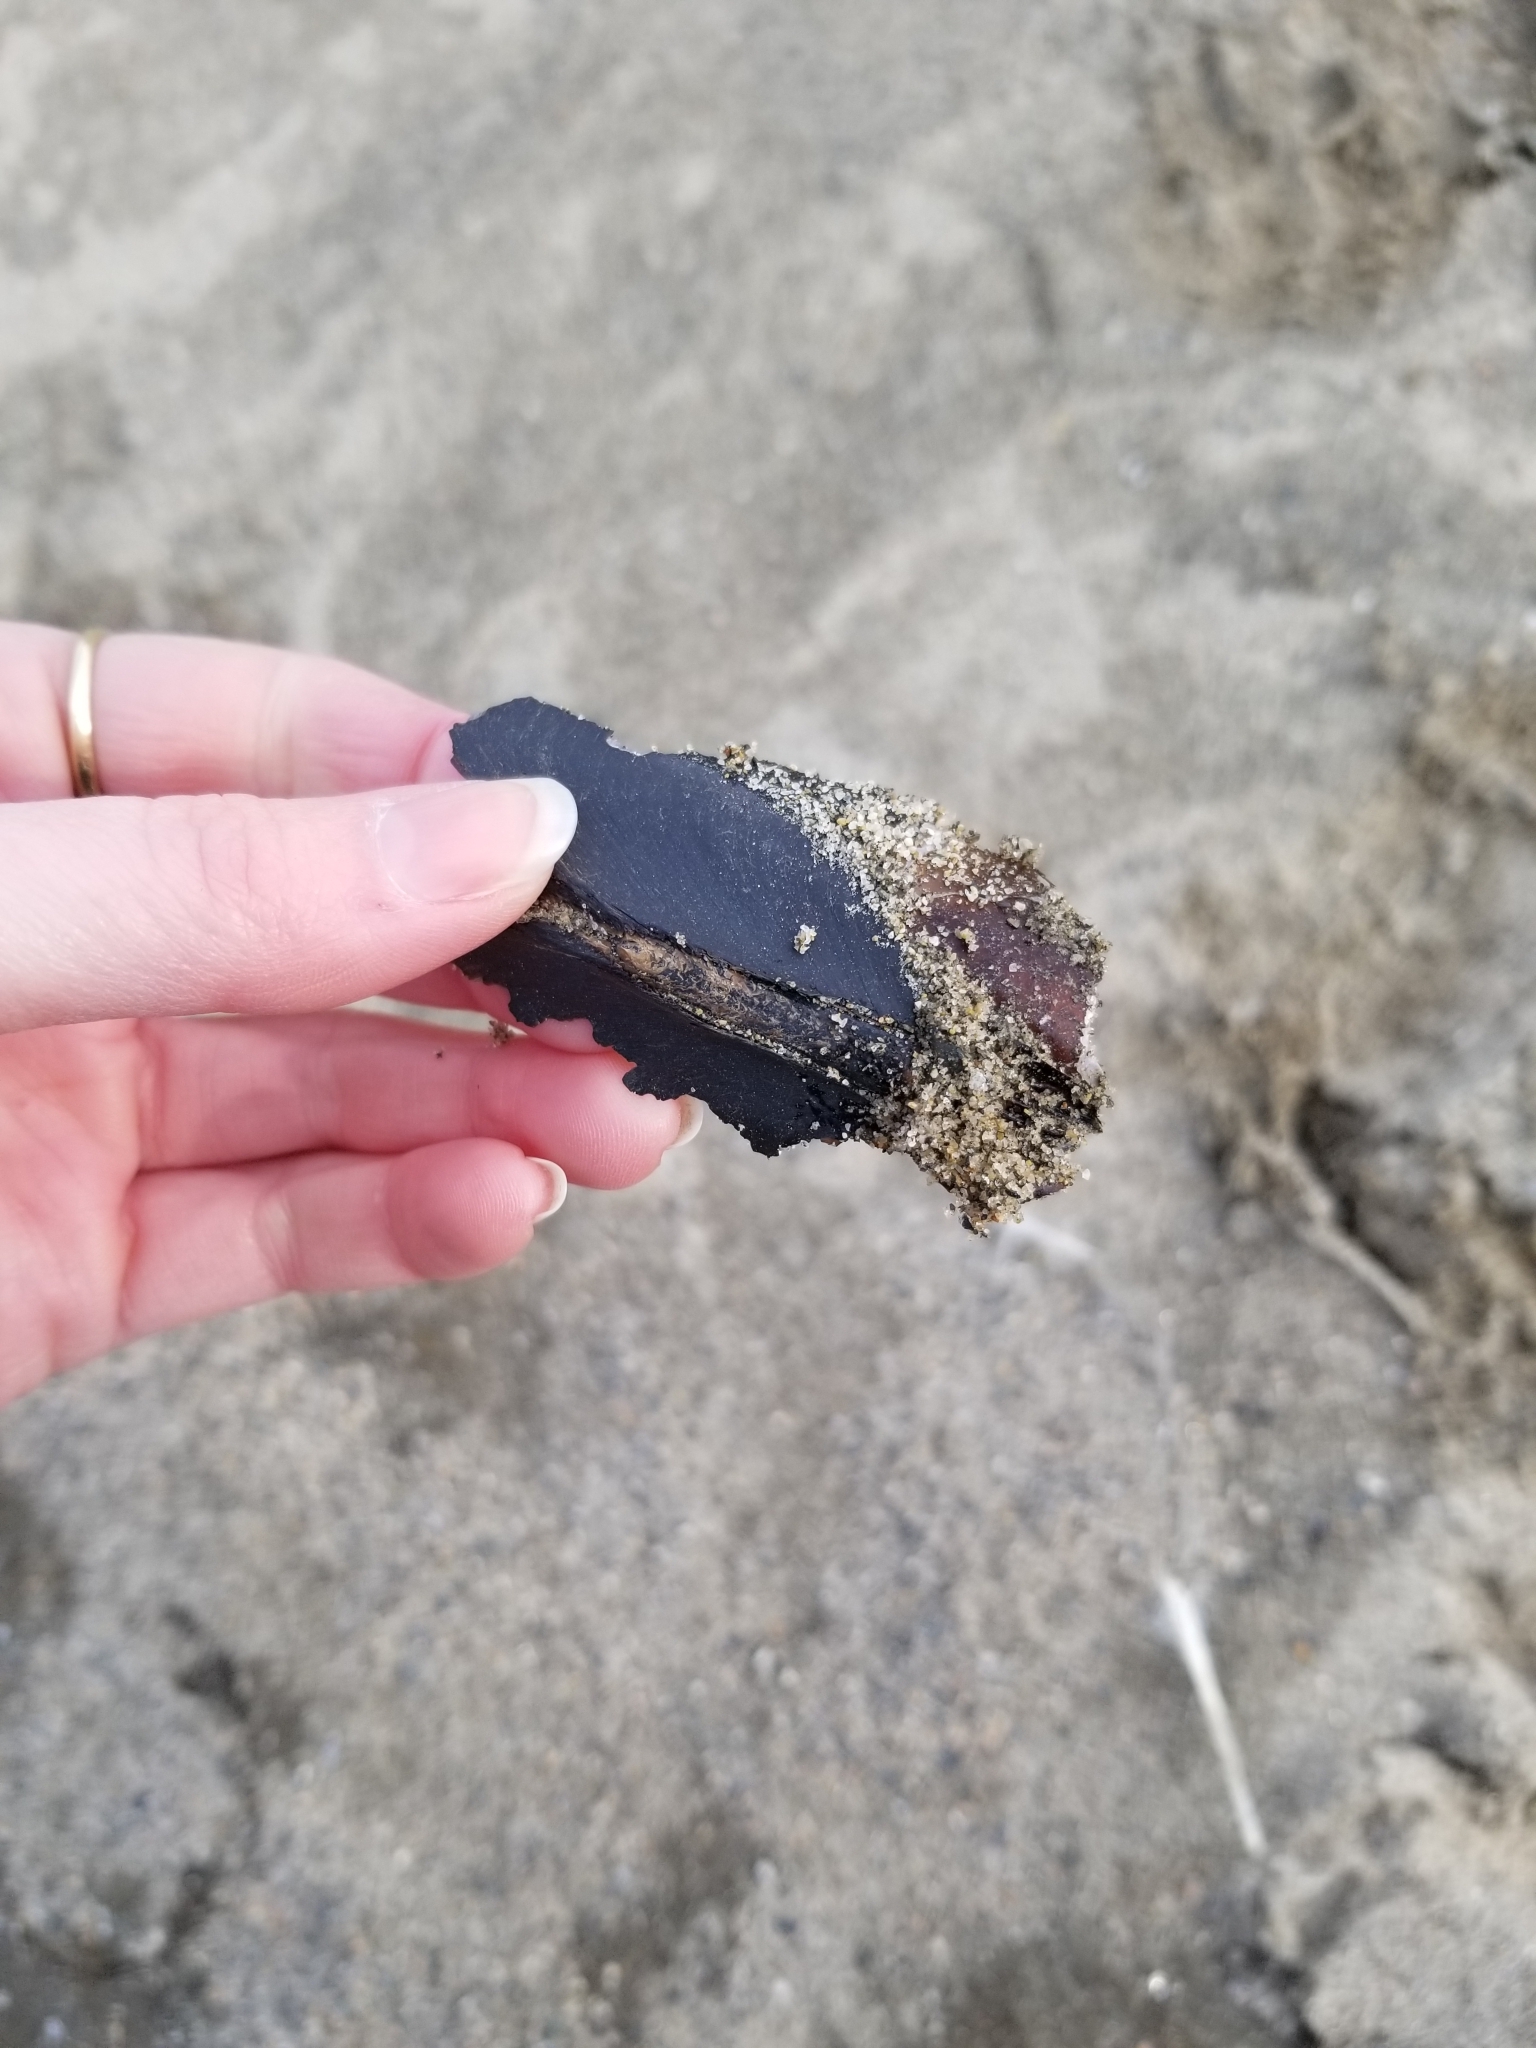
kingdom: Animalia
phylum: Mollusca
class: Bivalvia
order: Unionida
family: Margaritiferidae
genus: Margaritifera
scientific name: Margaritifera falcata
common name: Western pearlshell
